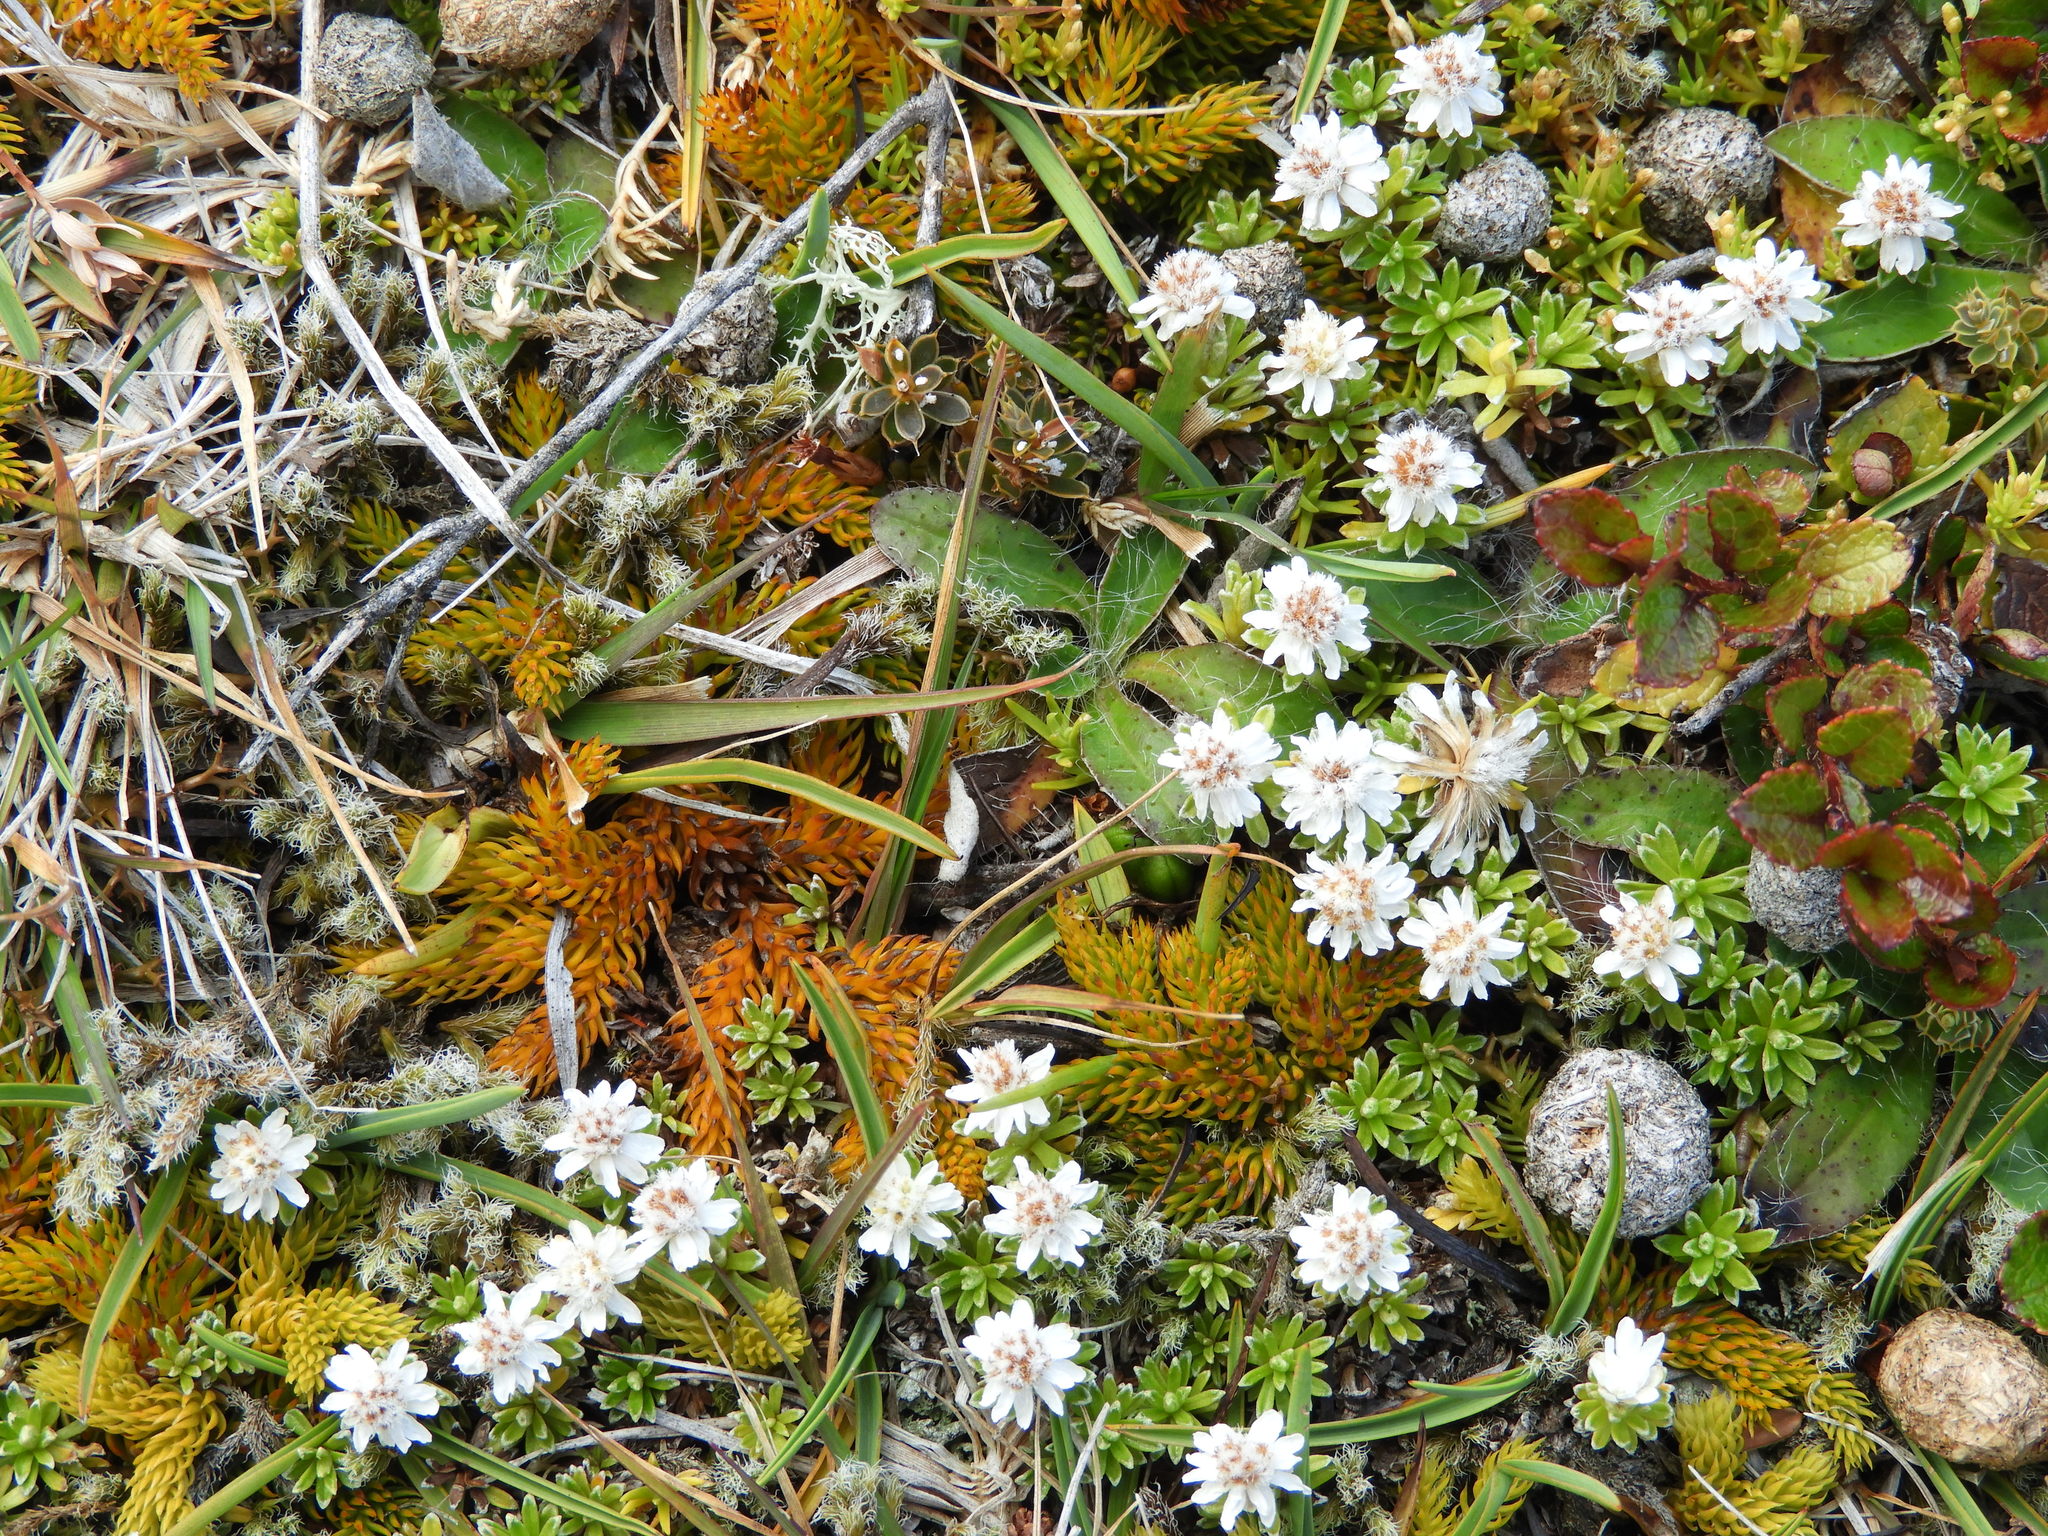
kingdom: Plantae
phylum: Tracheophyta
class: Magnoliopsida
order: Asterales
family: Asteraceae
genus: Raoulia
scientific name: Raoulia subsericea
